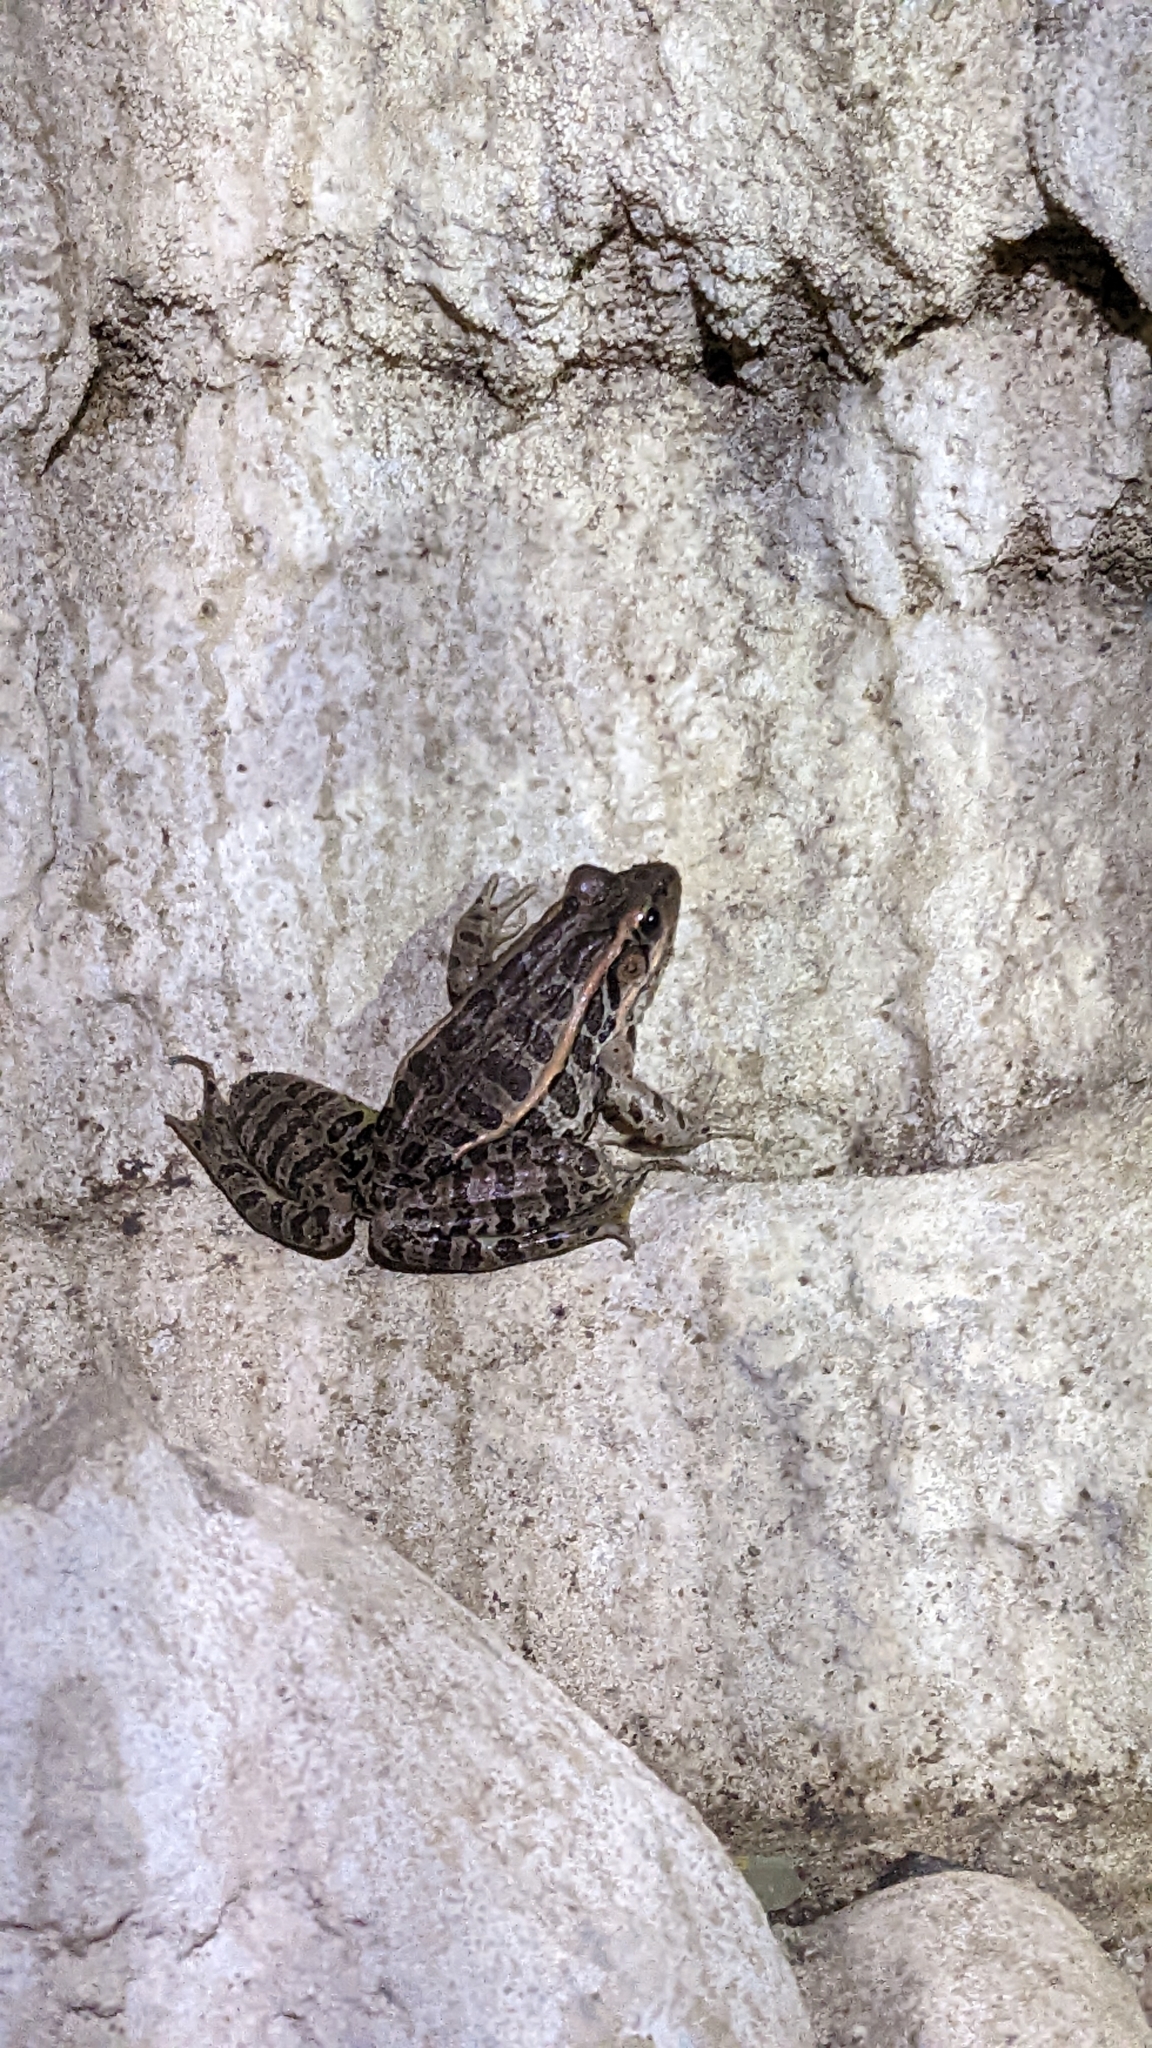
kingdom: Animalia
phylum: Chordata
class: Amphibia
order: Anura
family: Ranidae
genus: Lithobates
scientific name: Lithobates palustris
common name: Pickerel frog
